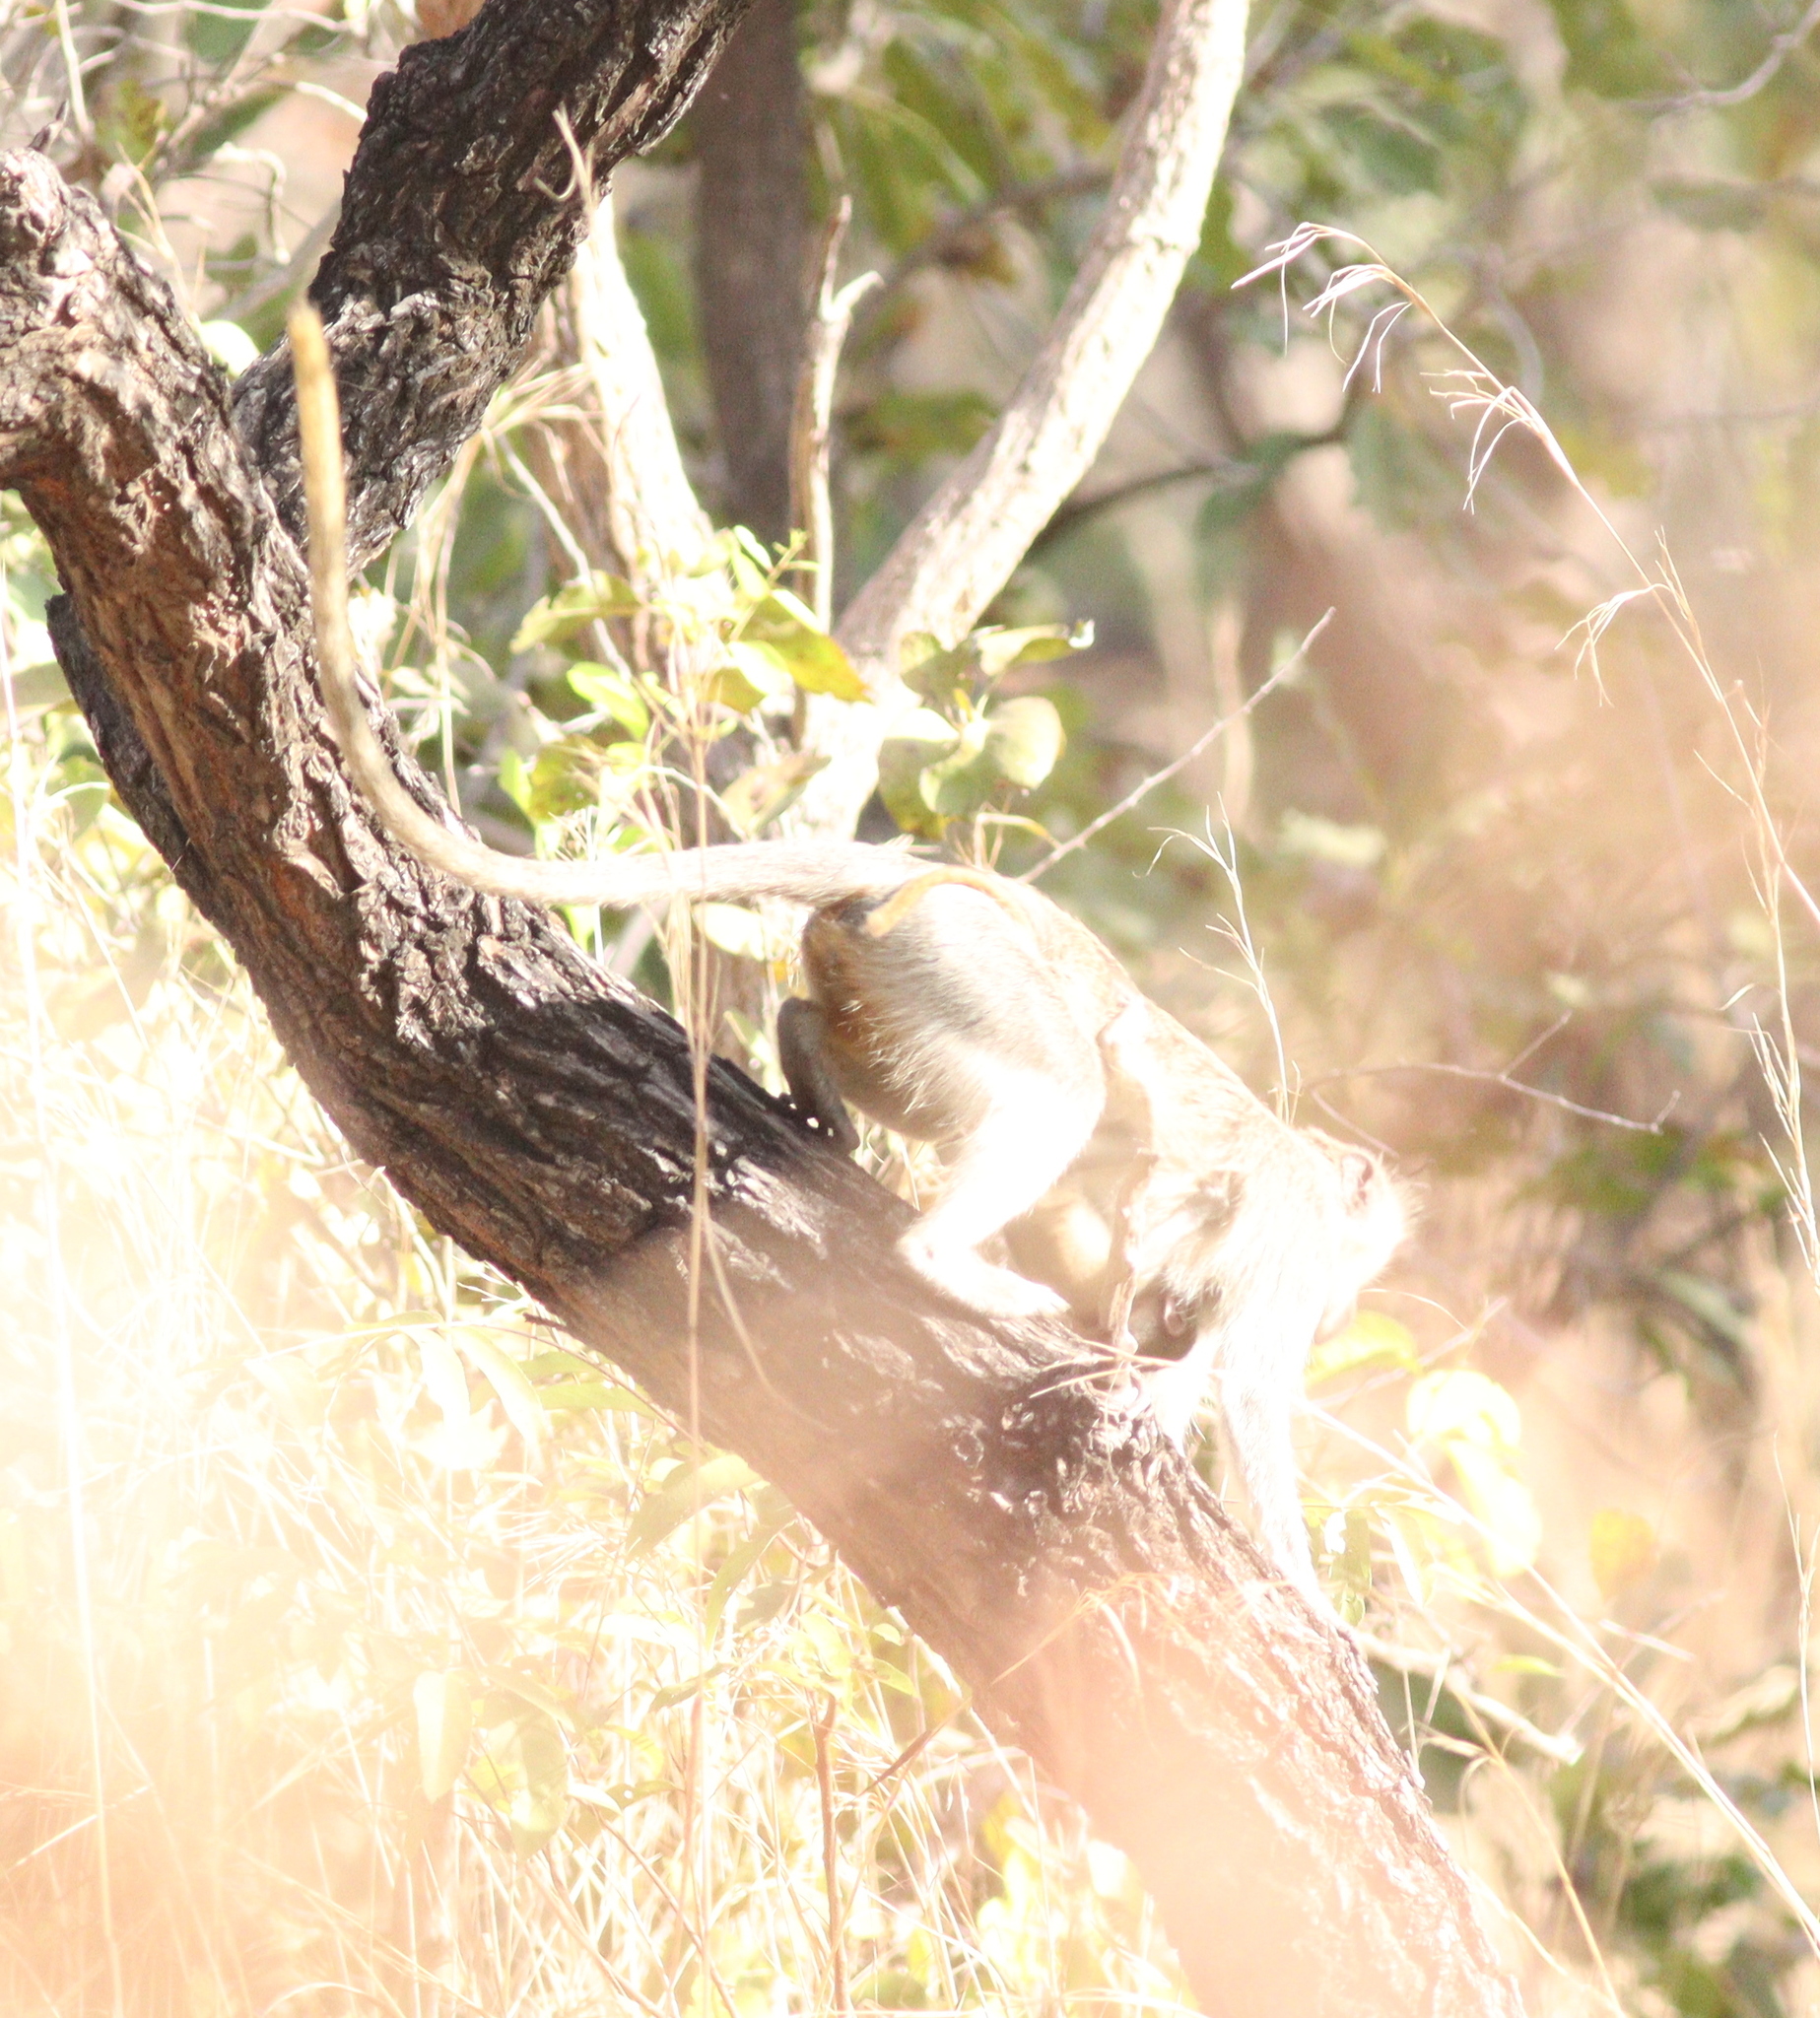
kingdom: Animalia
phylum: Chordata
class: Mammalia
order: Primates
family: Cercopithecidae
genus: Chlorocebus
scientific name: Chlorocebus sabaeus
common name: Green monkey
